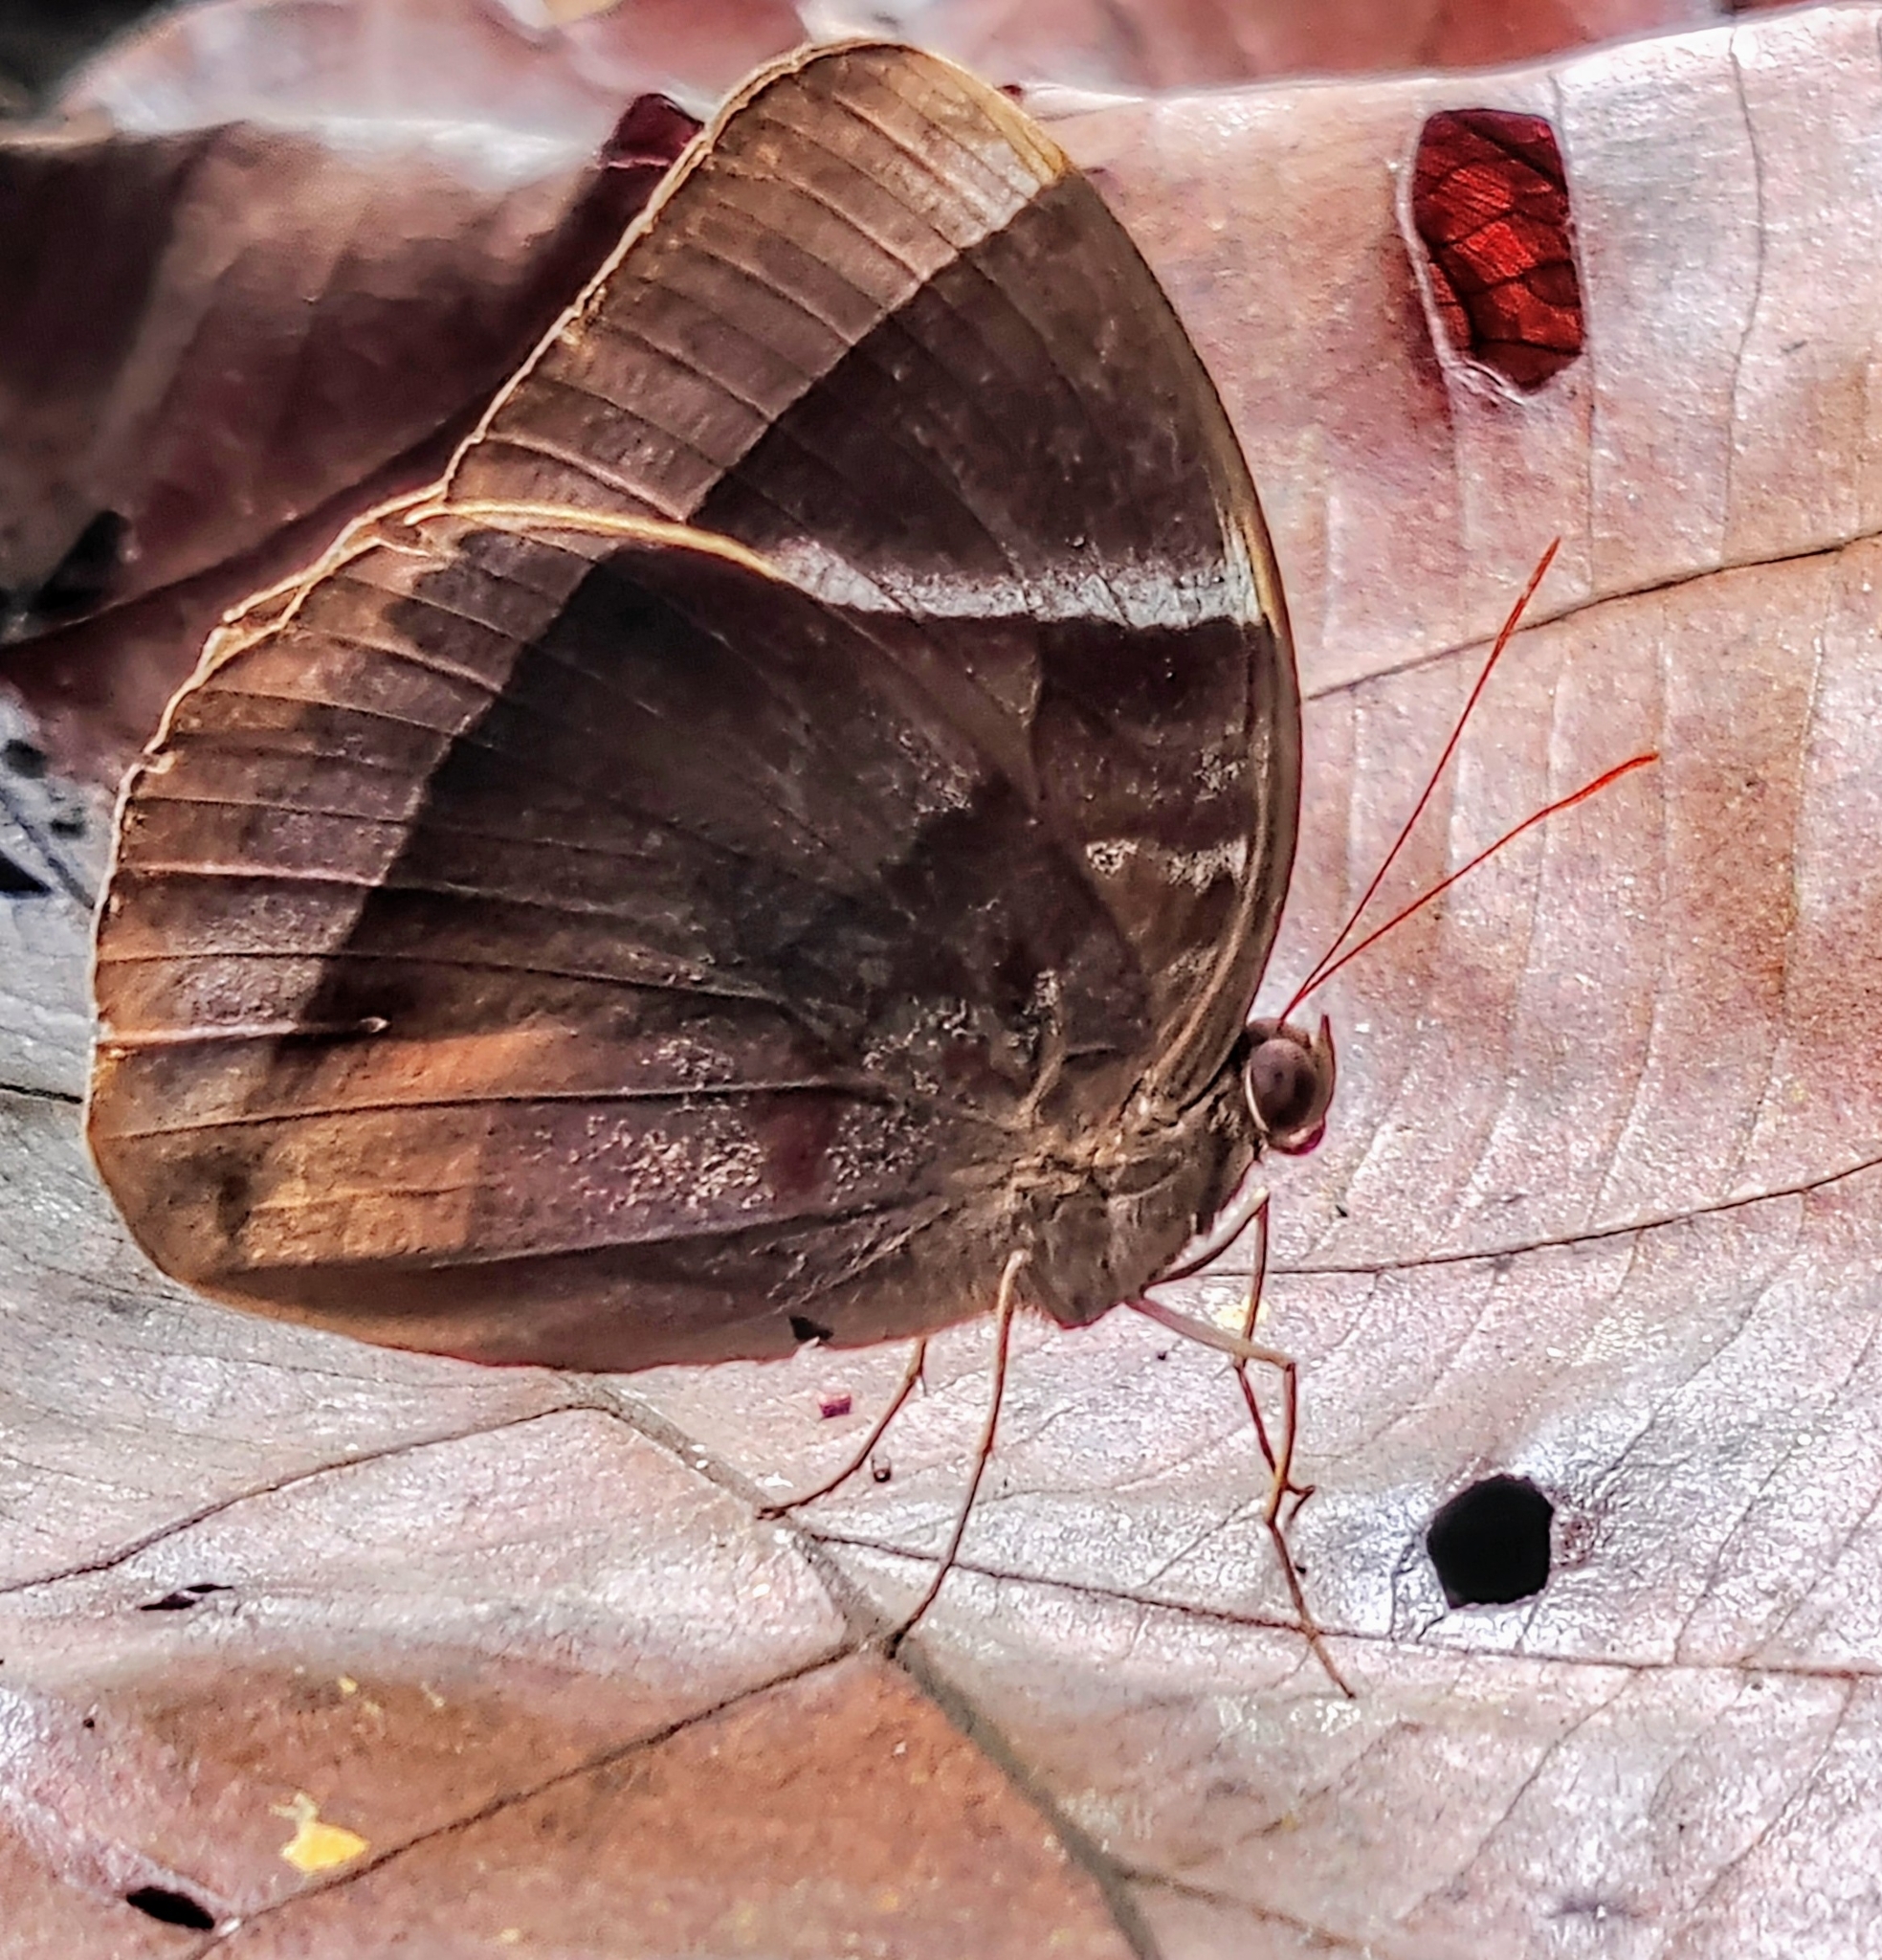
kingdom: Animalia
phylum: Arthropoda
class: Insecta
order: Lepidoptera
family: Nymphalidae
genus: Thaumantis
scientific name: Thaumantis klugius
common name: Dark blue jungle glory
